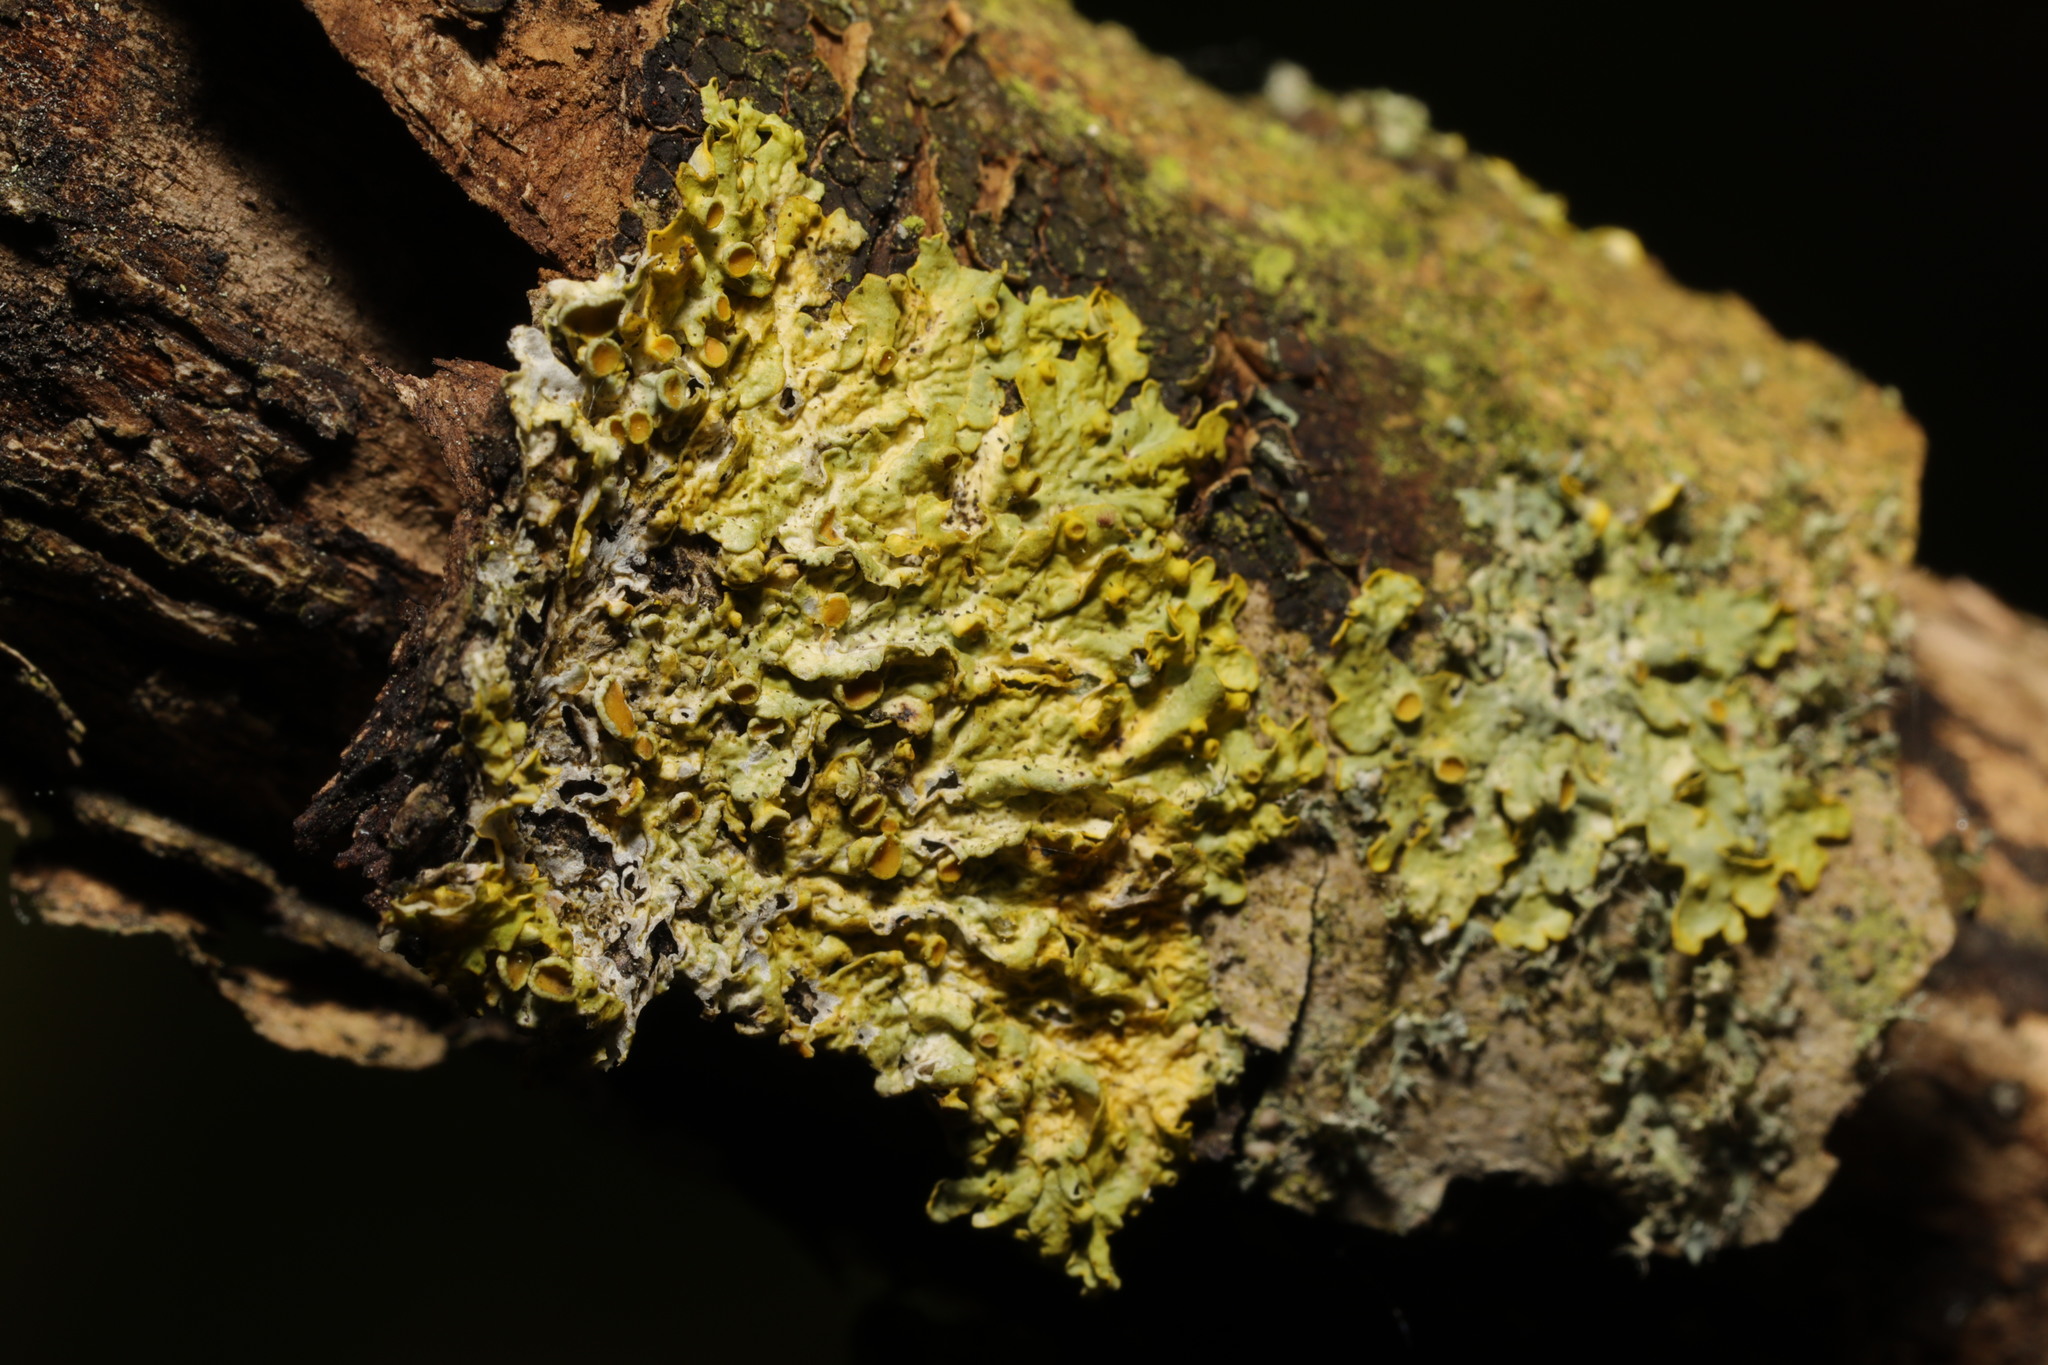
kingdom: Fungi
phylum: Ascomycota
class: Lecanoromycetes
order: Teloschistales
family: Teloschistaceae
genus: Xanthoria
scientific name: Xanthoria parietina
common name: Common orange lichen
